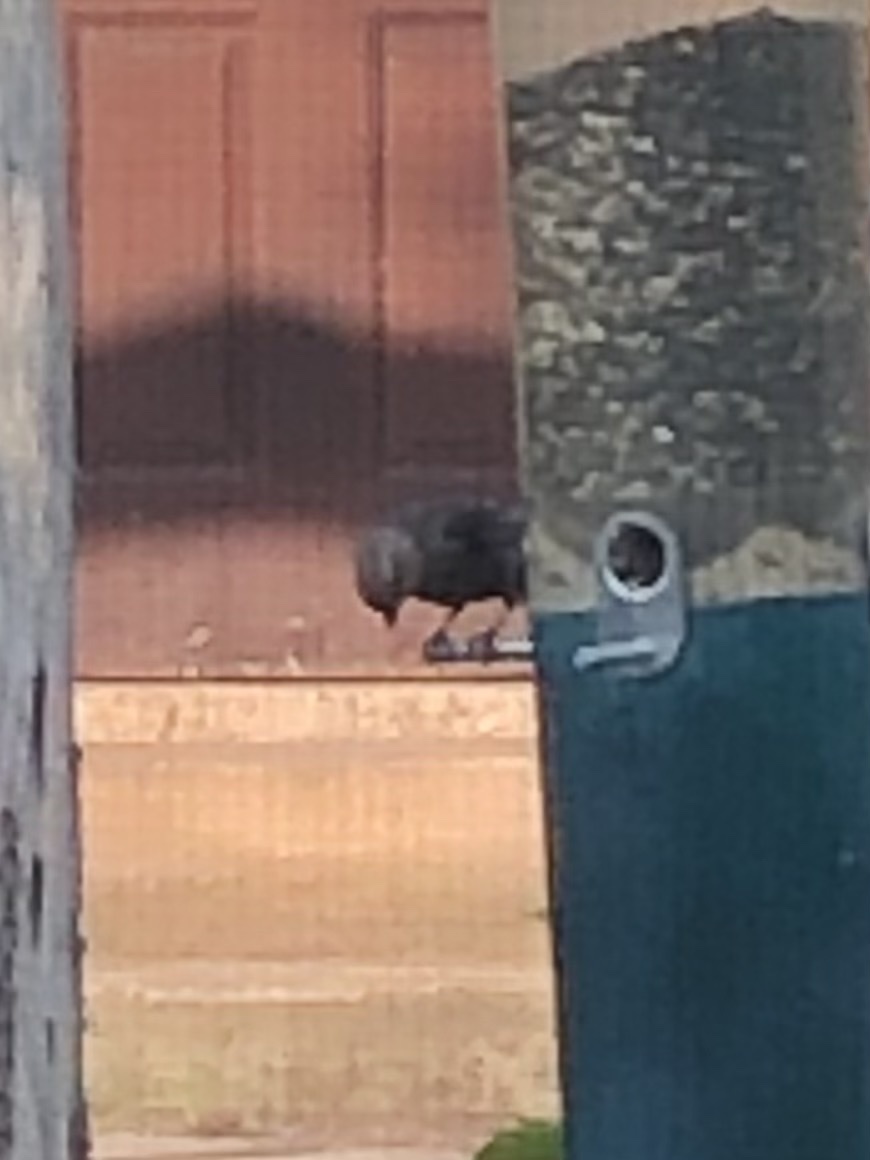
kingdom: Animalia
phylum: Chordata
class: Aves
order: Passeriformes
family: Icteridae
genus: Molothrus
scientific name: Molothrus ater
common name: Brown-headed cowbird
